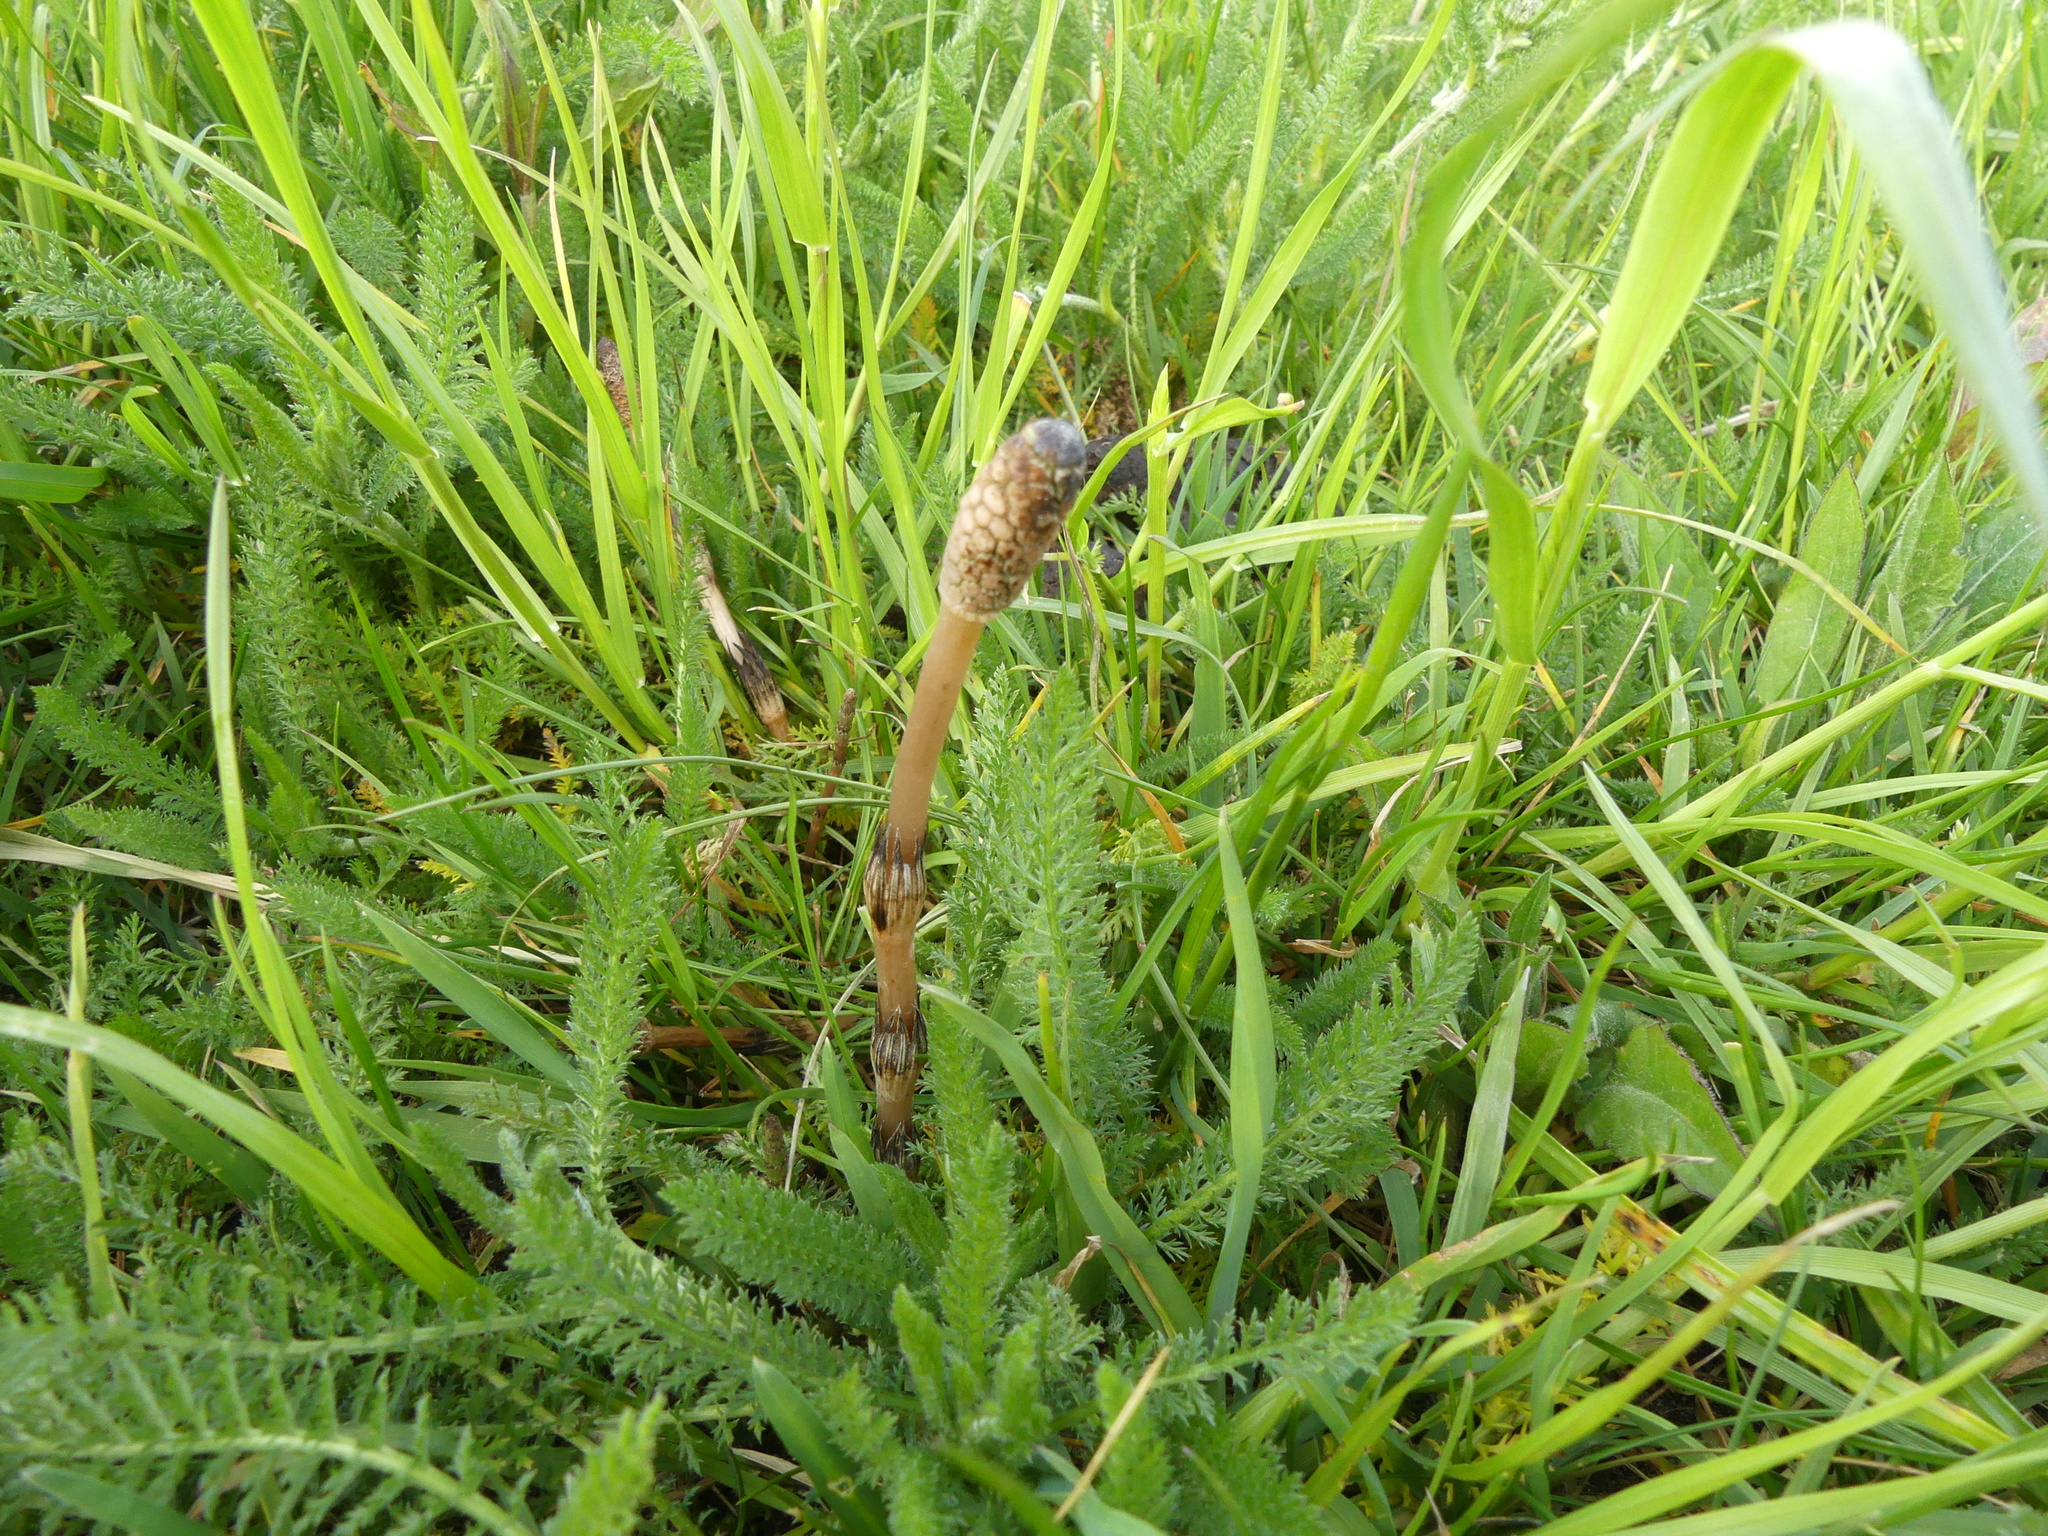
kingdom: Plantae
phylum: Tracheophyta
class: Polypodiopsida
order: Equisetales
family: Equisetaceae
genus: Equisetum
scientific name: Equisetum arvense
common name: Field horsetail
